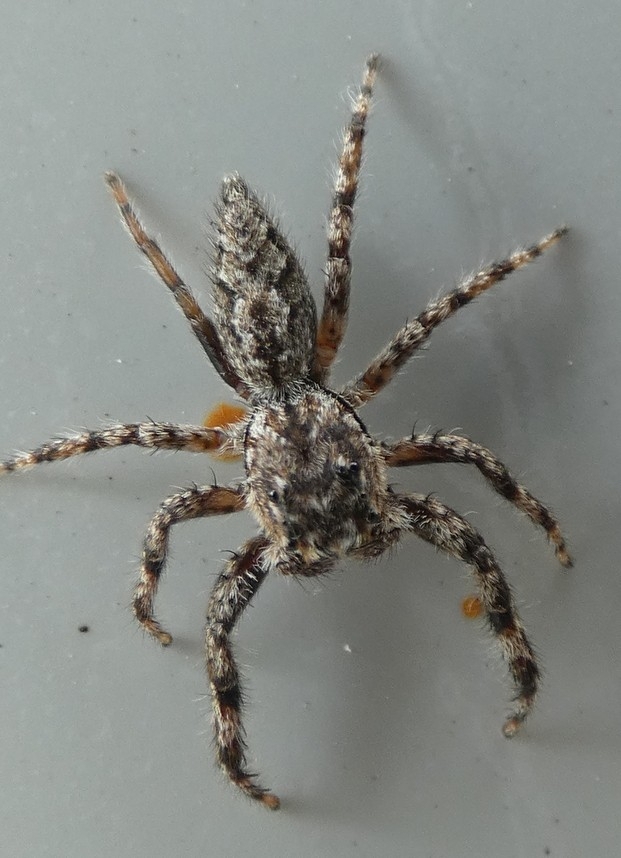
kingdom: Animalia
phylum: Arthropoda
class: Arachnida
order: Araneae
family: Salticidae
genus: Platycryptus
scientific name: Platycryptus undatus
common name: Tan jumping spider
